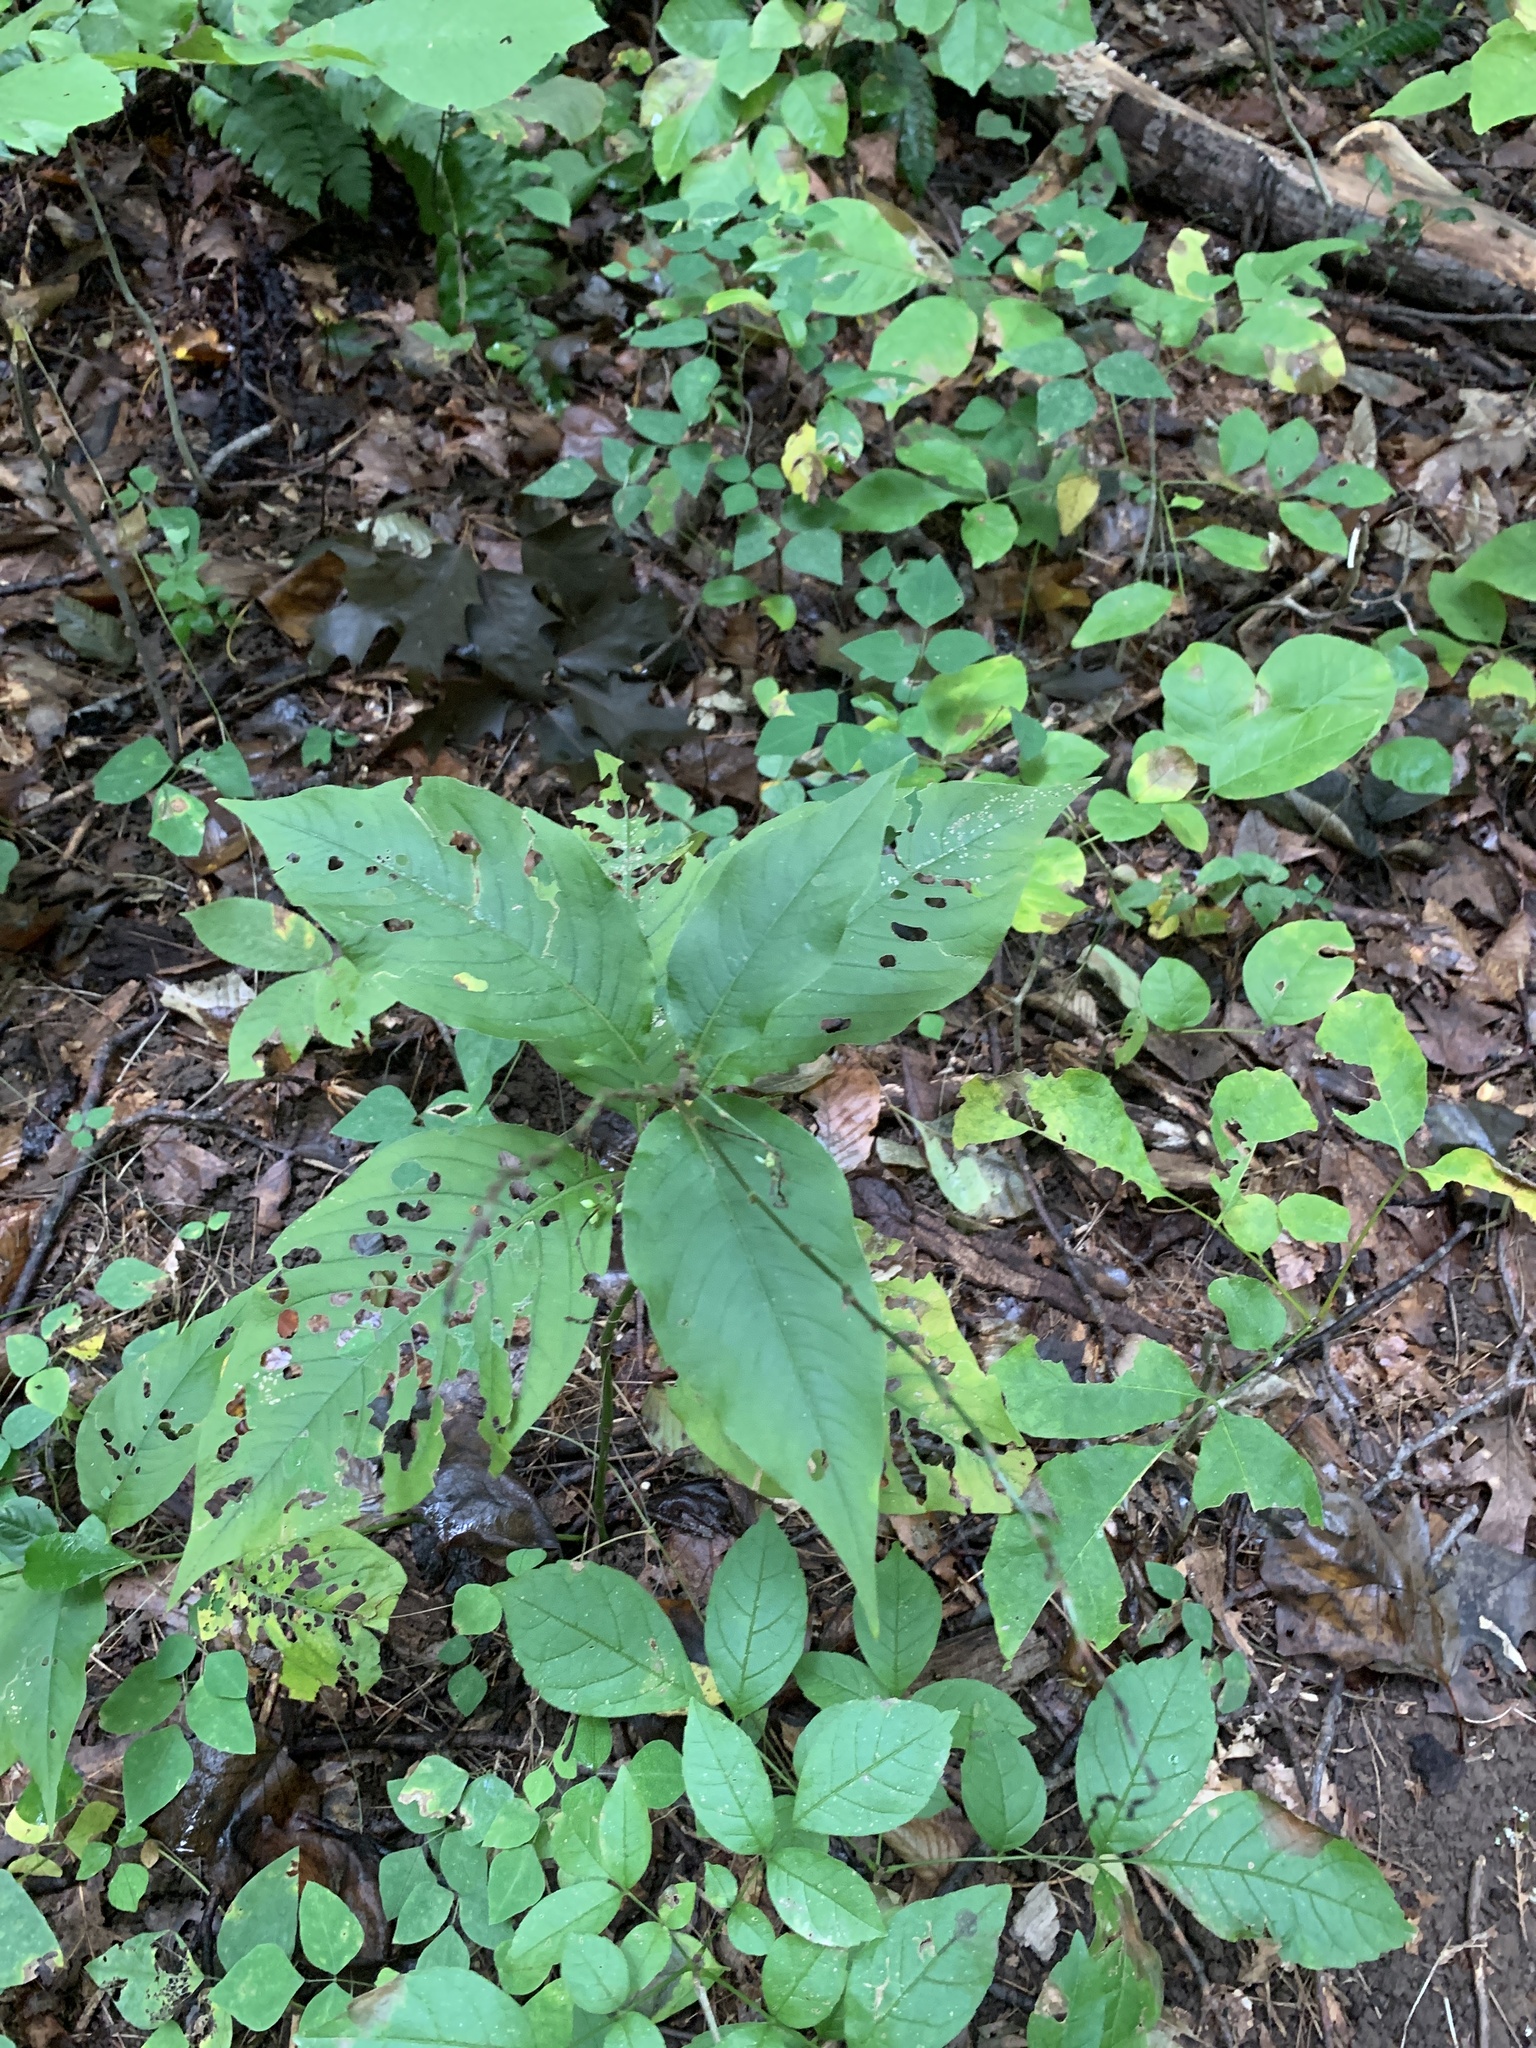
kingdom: Plantae
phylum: Tracheophyta
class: Magnoliopsida
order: Caryophyllales
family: Polygonaceae
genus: Persicaria
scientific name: Persicaria virginiana
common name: Jumpseed
